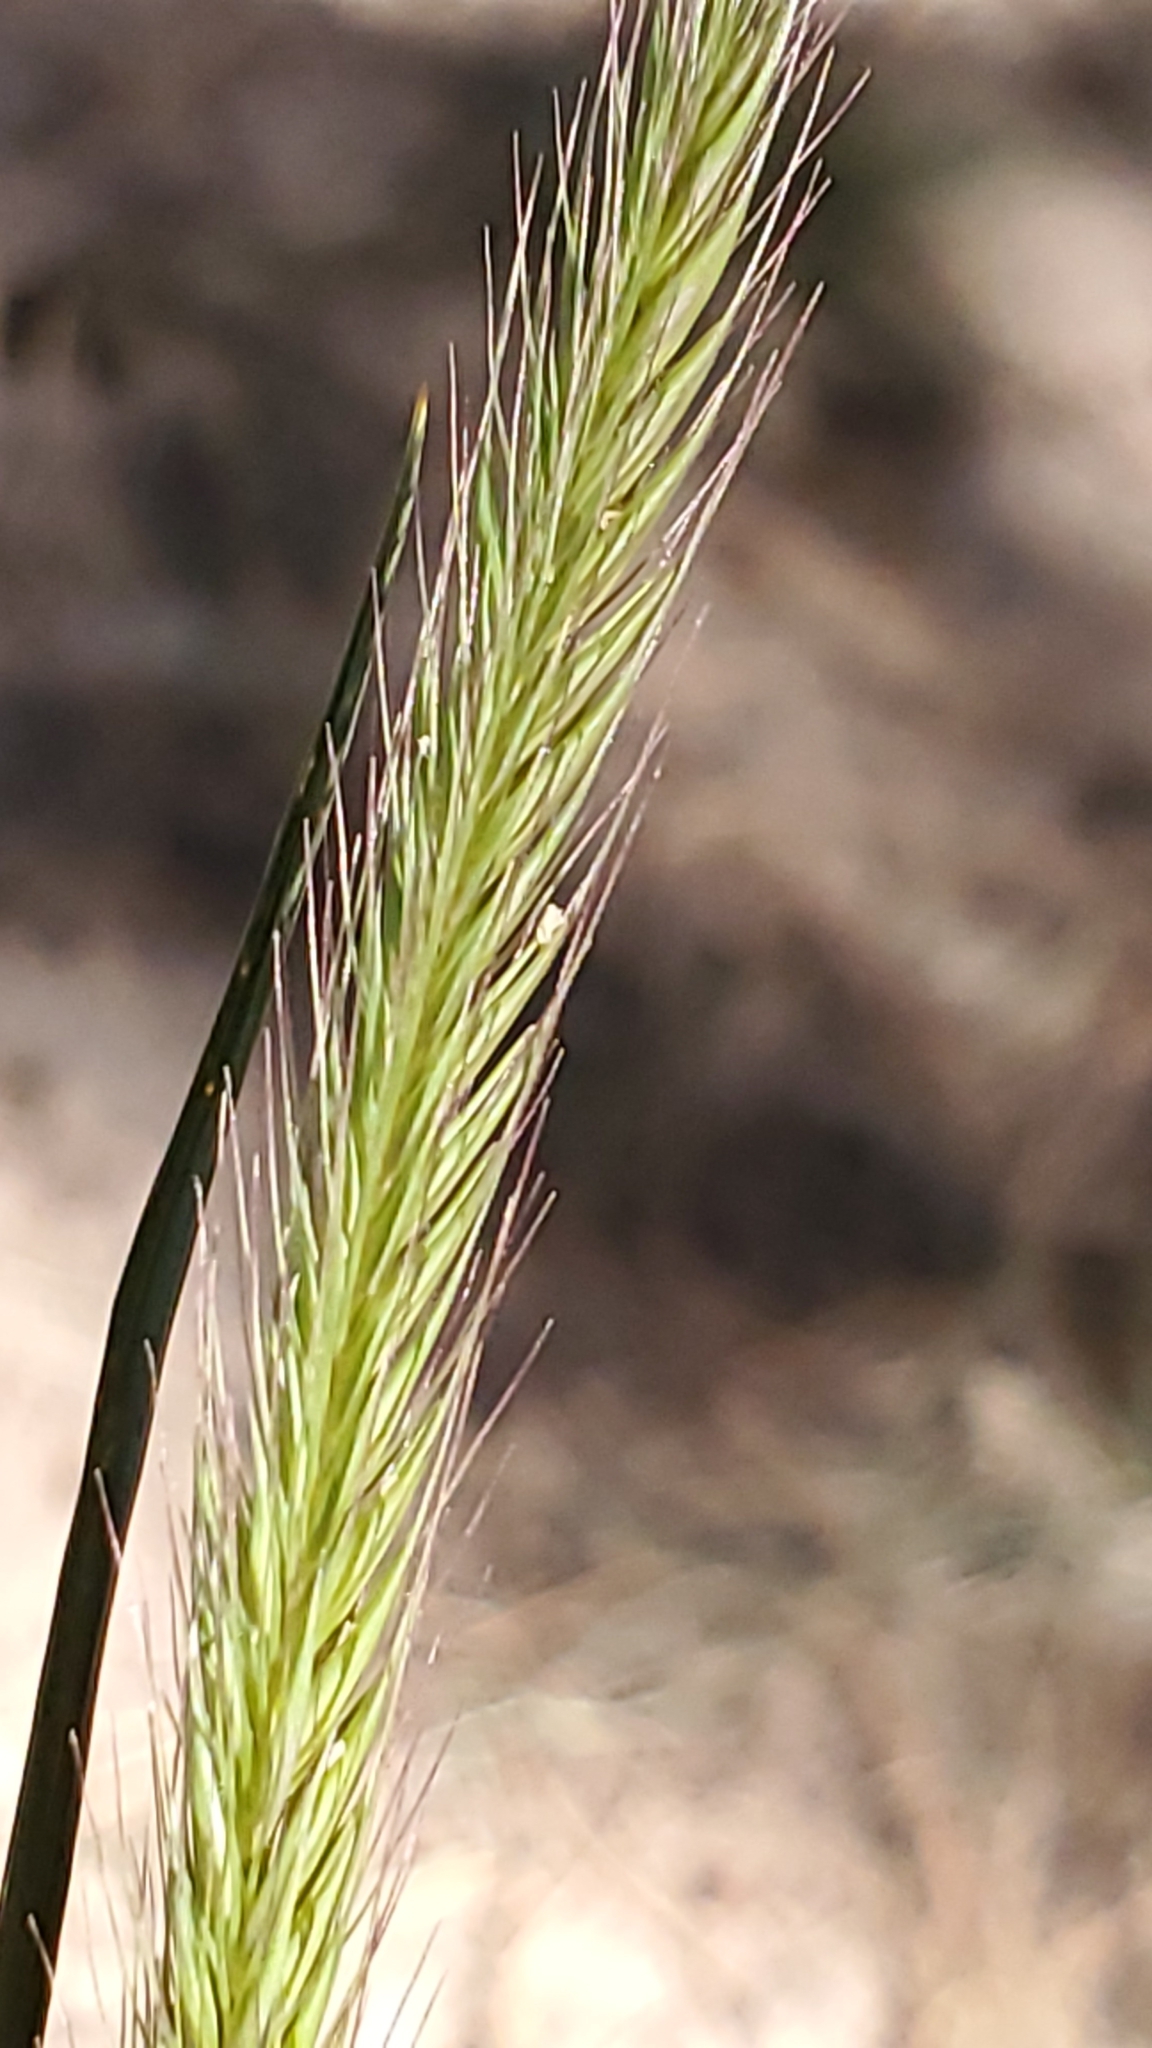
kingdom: Plantae
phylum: Tracheophyta
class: Liliopsida
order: Poales
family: Poaceae
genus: Hordeum
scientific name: Hordeum brachyantherum
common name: Meadow barley
